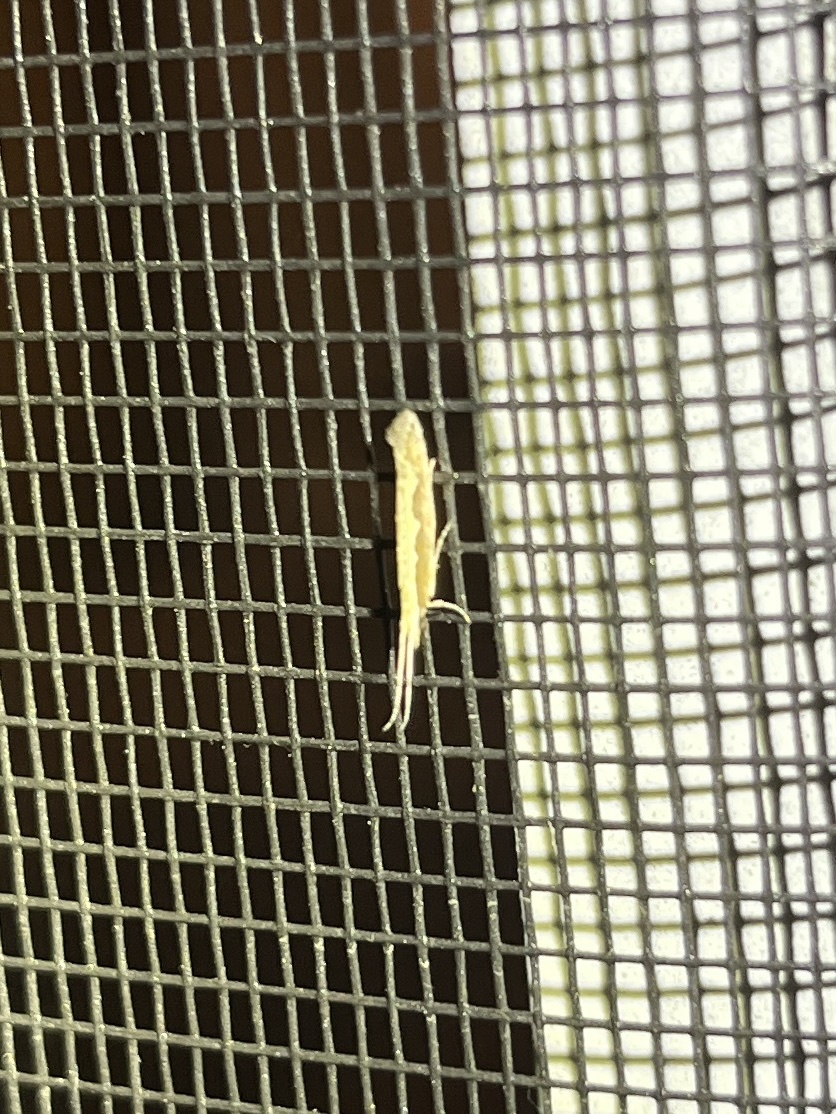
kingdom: Animalia
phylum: Arthropoda
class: Insecta
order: Lepidoptera
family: Plutellidae
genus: Plutella
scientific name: Plutella xylostella
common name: Diamond-back moth
